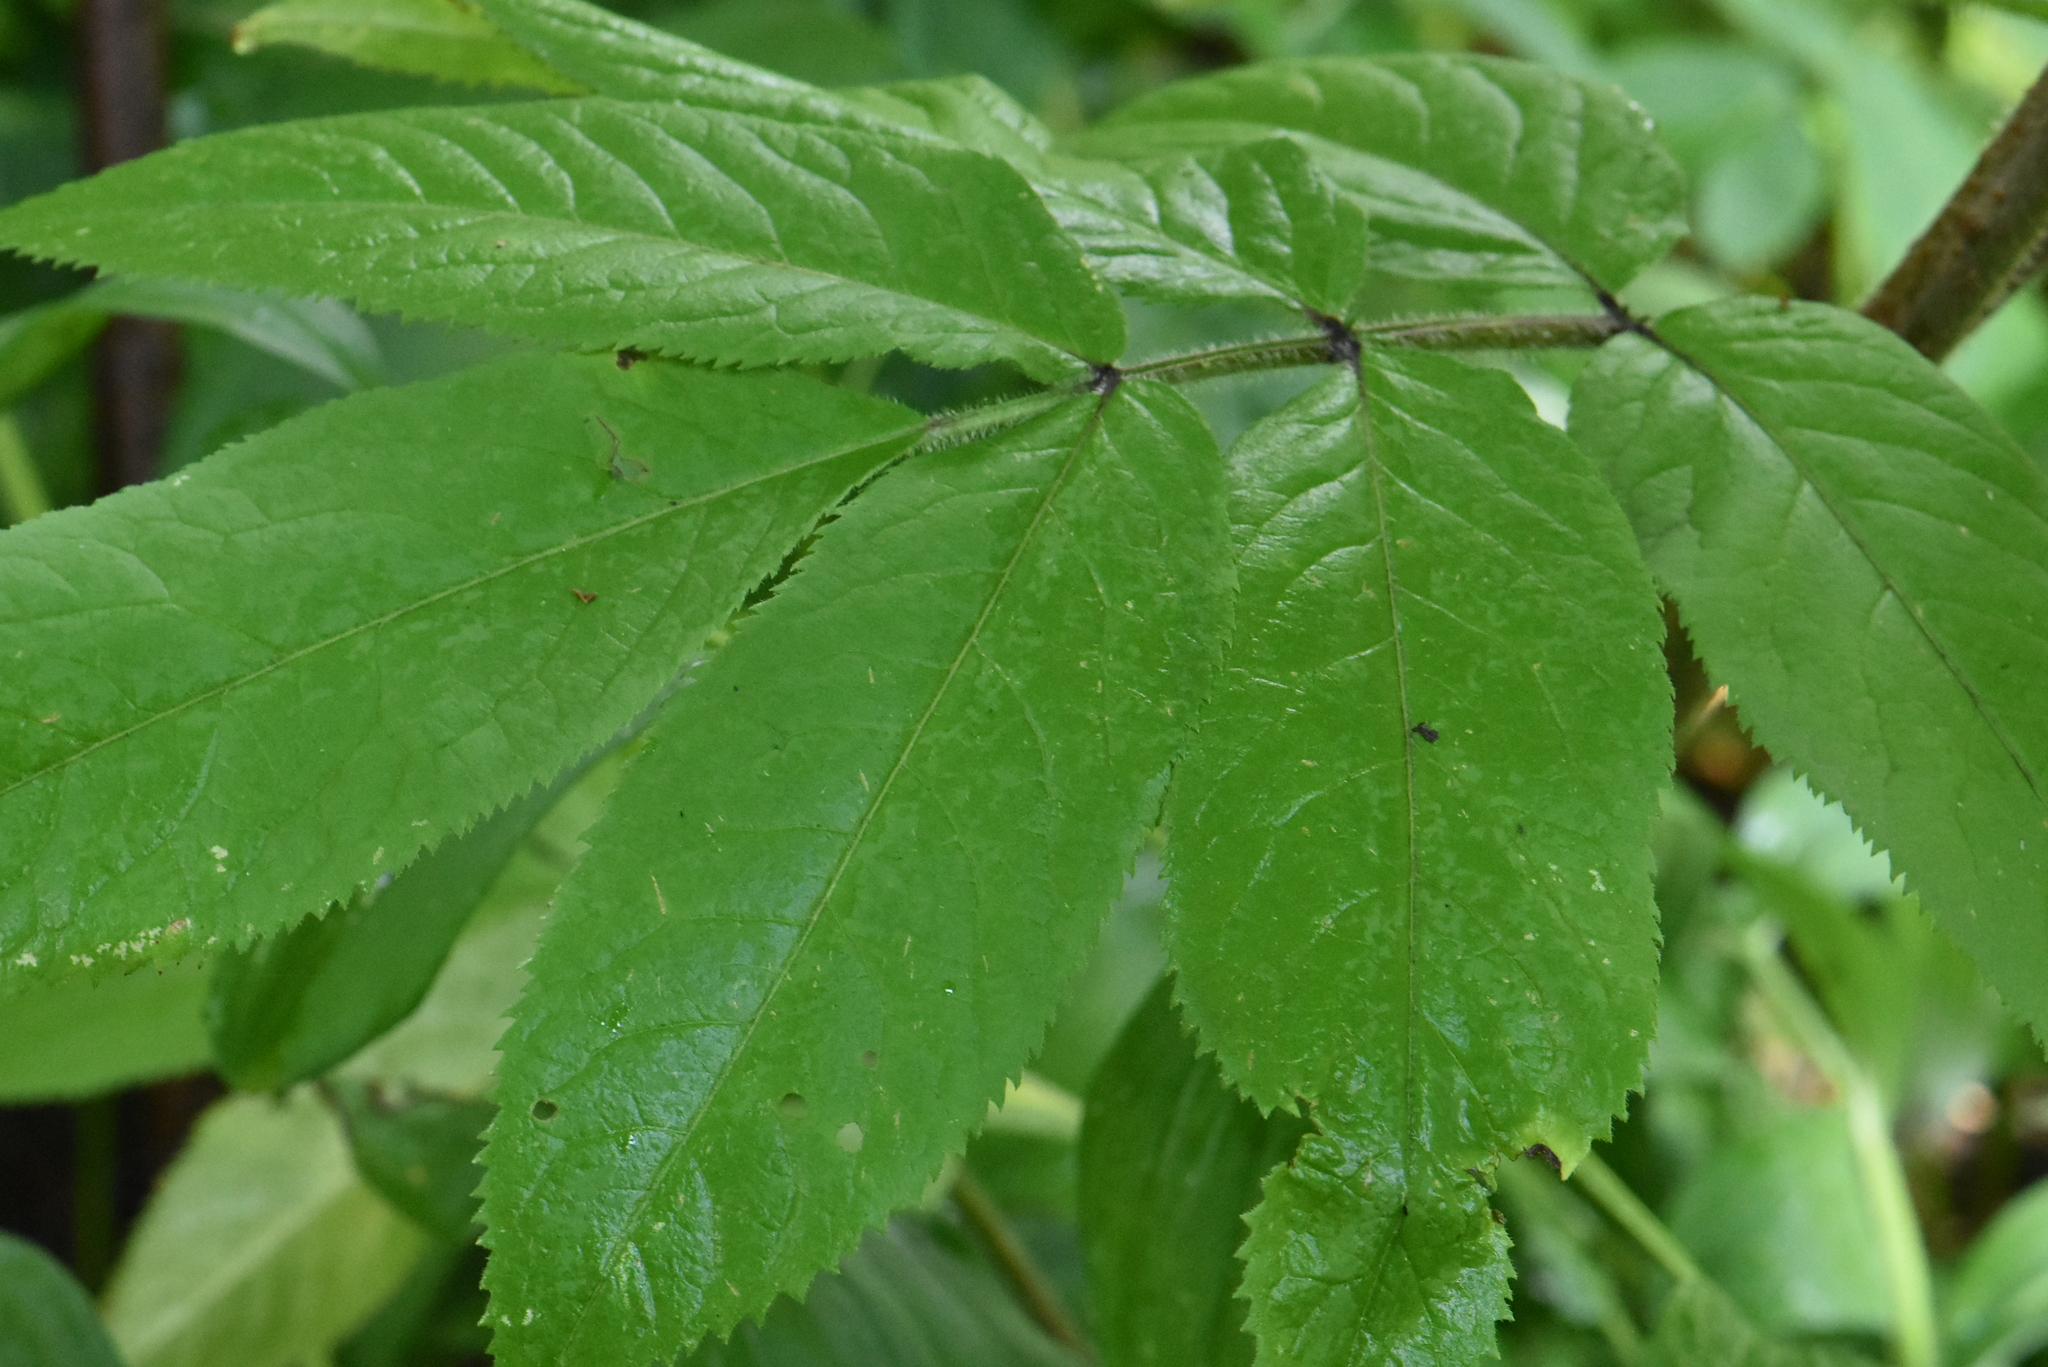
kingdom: Plantae
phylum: Tracheophyta
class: Magnoliopsida
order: Dipsacales
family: Viburnaceae
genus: Sambucus
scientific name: Sambucus sibirica
